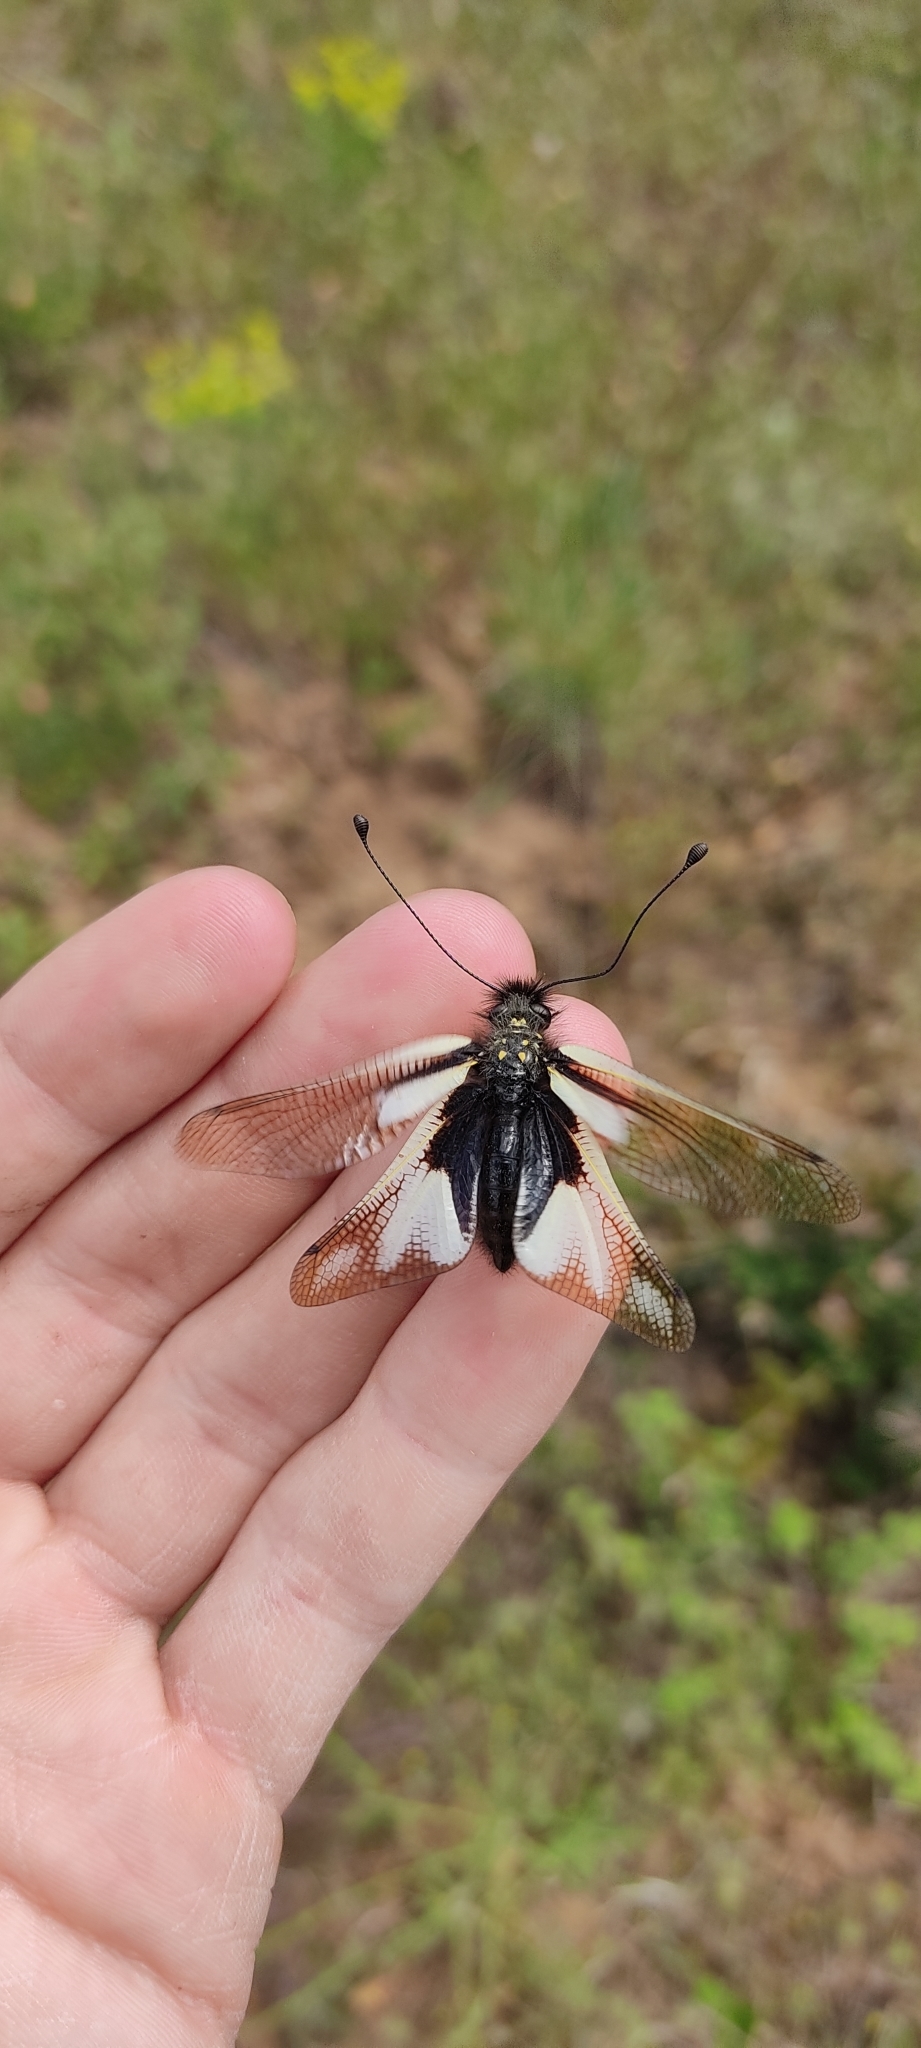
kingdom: Animalia
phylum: Arthropoda
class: Insecta
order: Neuroptera
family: Ascalaphidae
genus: Libelloides
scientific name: Libelloides coccajus
